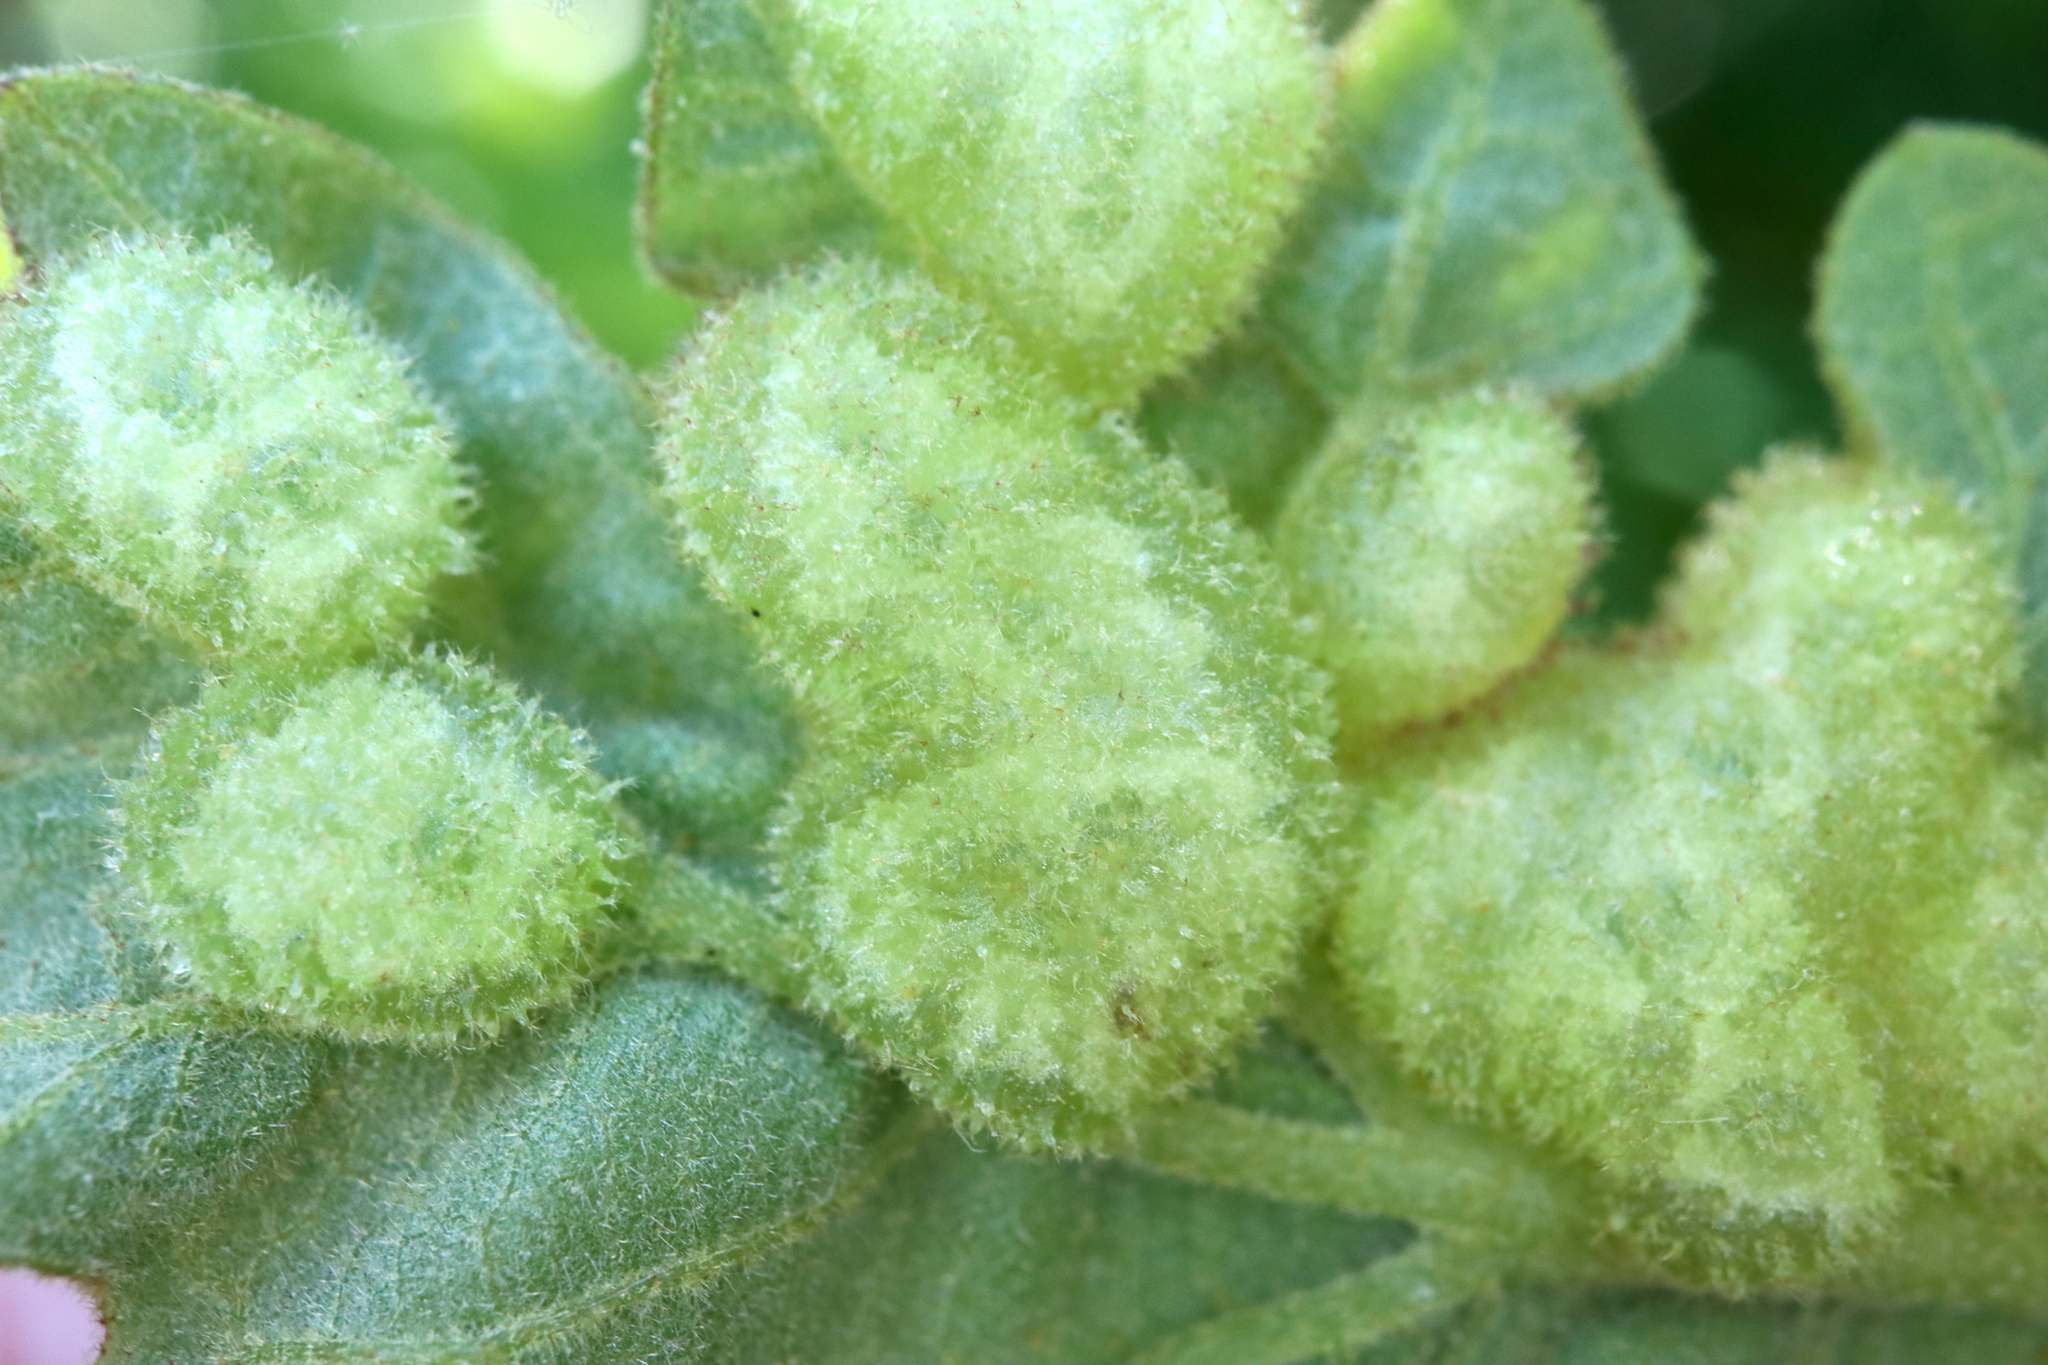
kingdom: Animalia
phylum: Arthropoda
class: Insecta
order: Hymenoptera
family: Cynipidae
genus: Neuroterus
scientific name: Neuroterus quercusirregularis
